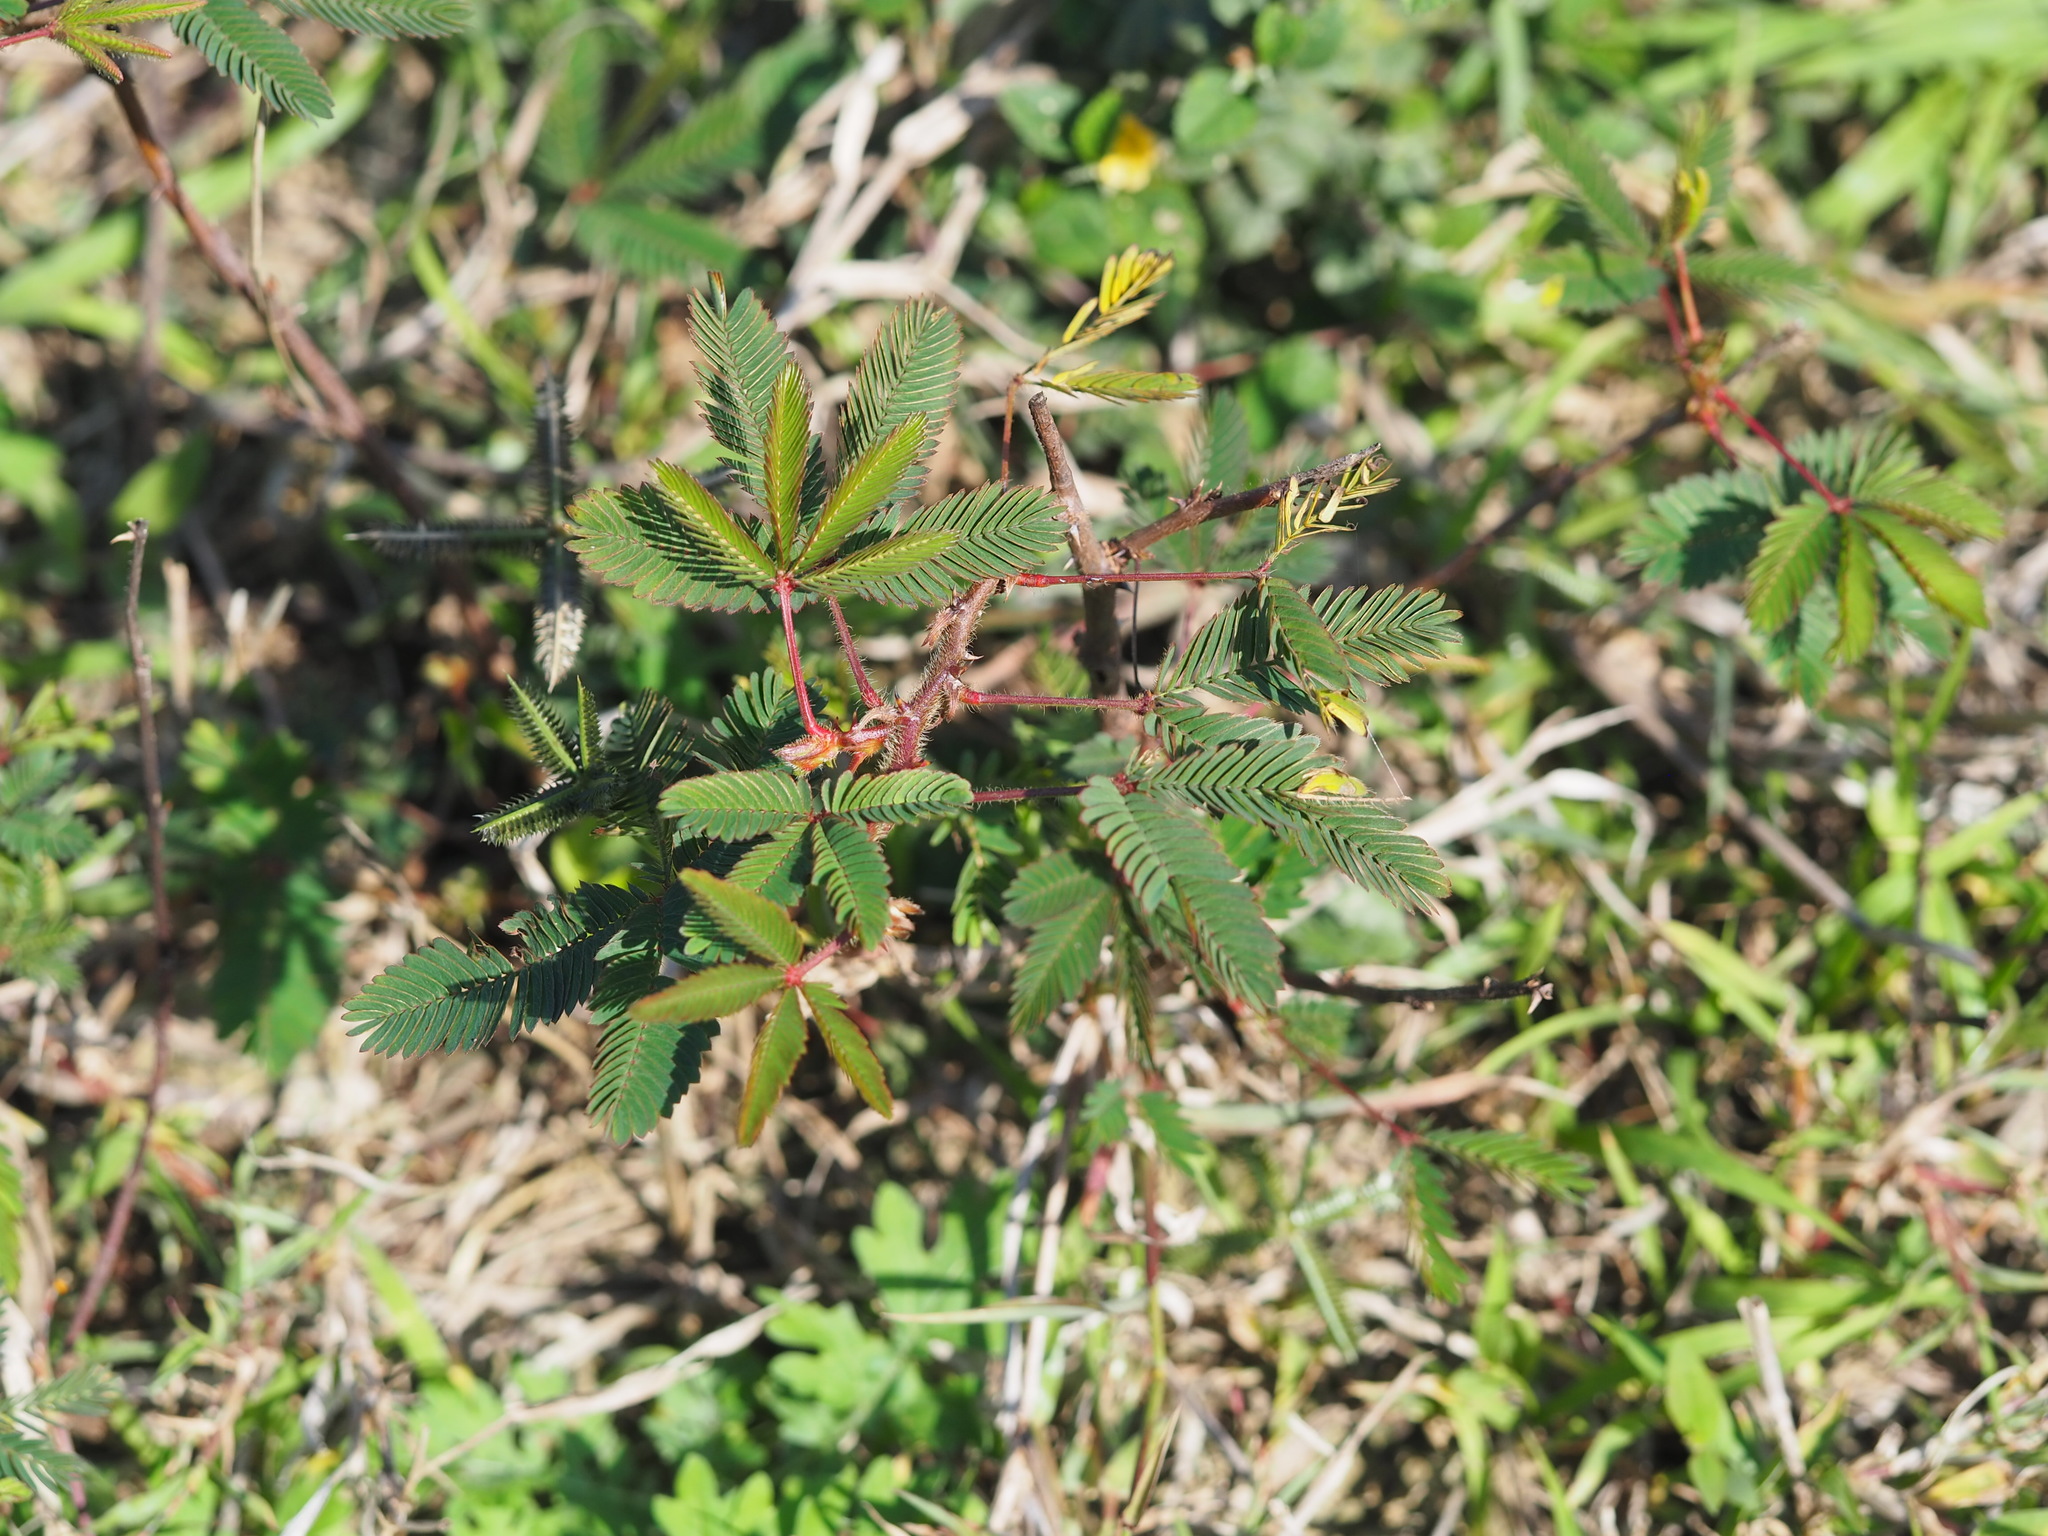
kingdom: Plantae
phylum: Tracheophyta
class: Magnoliopsida
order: Fabales
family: Fabaceae
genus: Mimosa
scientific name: Mimosa pudica
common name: Sensitive plant
